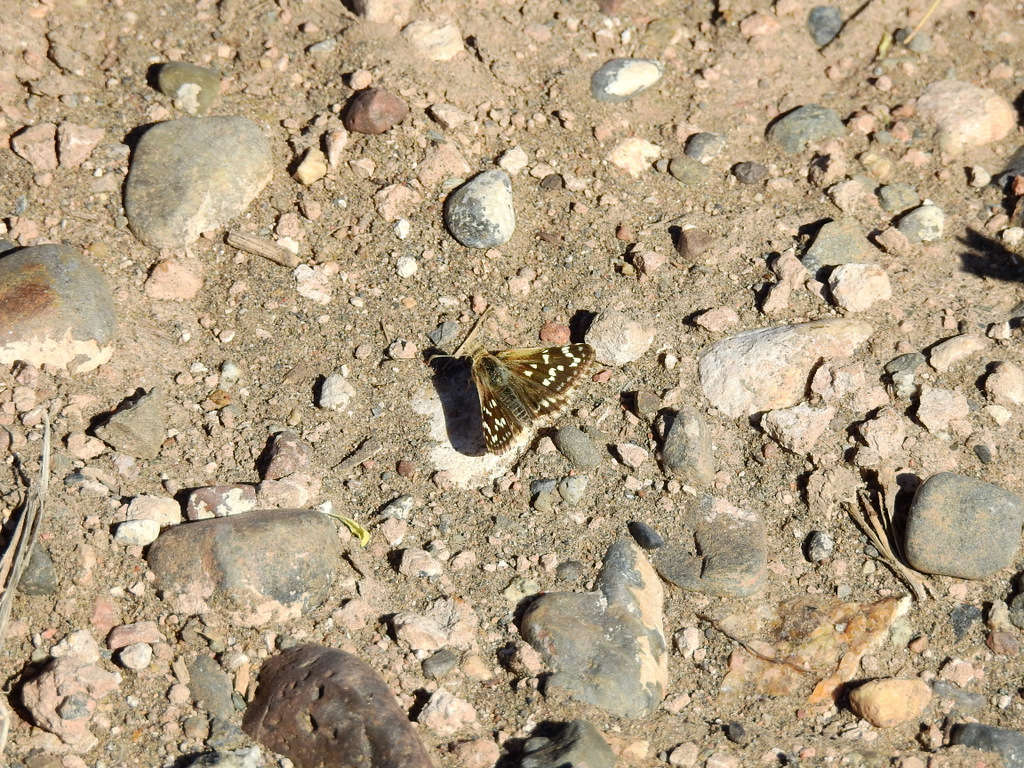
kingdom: Animalia
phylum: Arthropoda
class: Insecta
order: Lepidoptera
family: Hesperiidae
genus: Chirgus
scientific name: Chirgus fides
